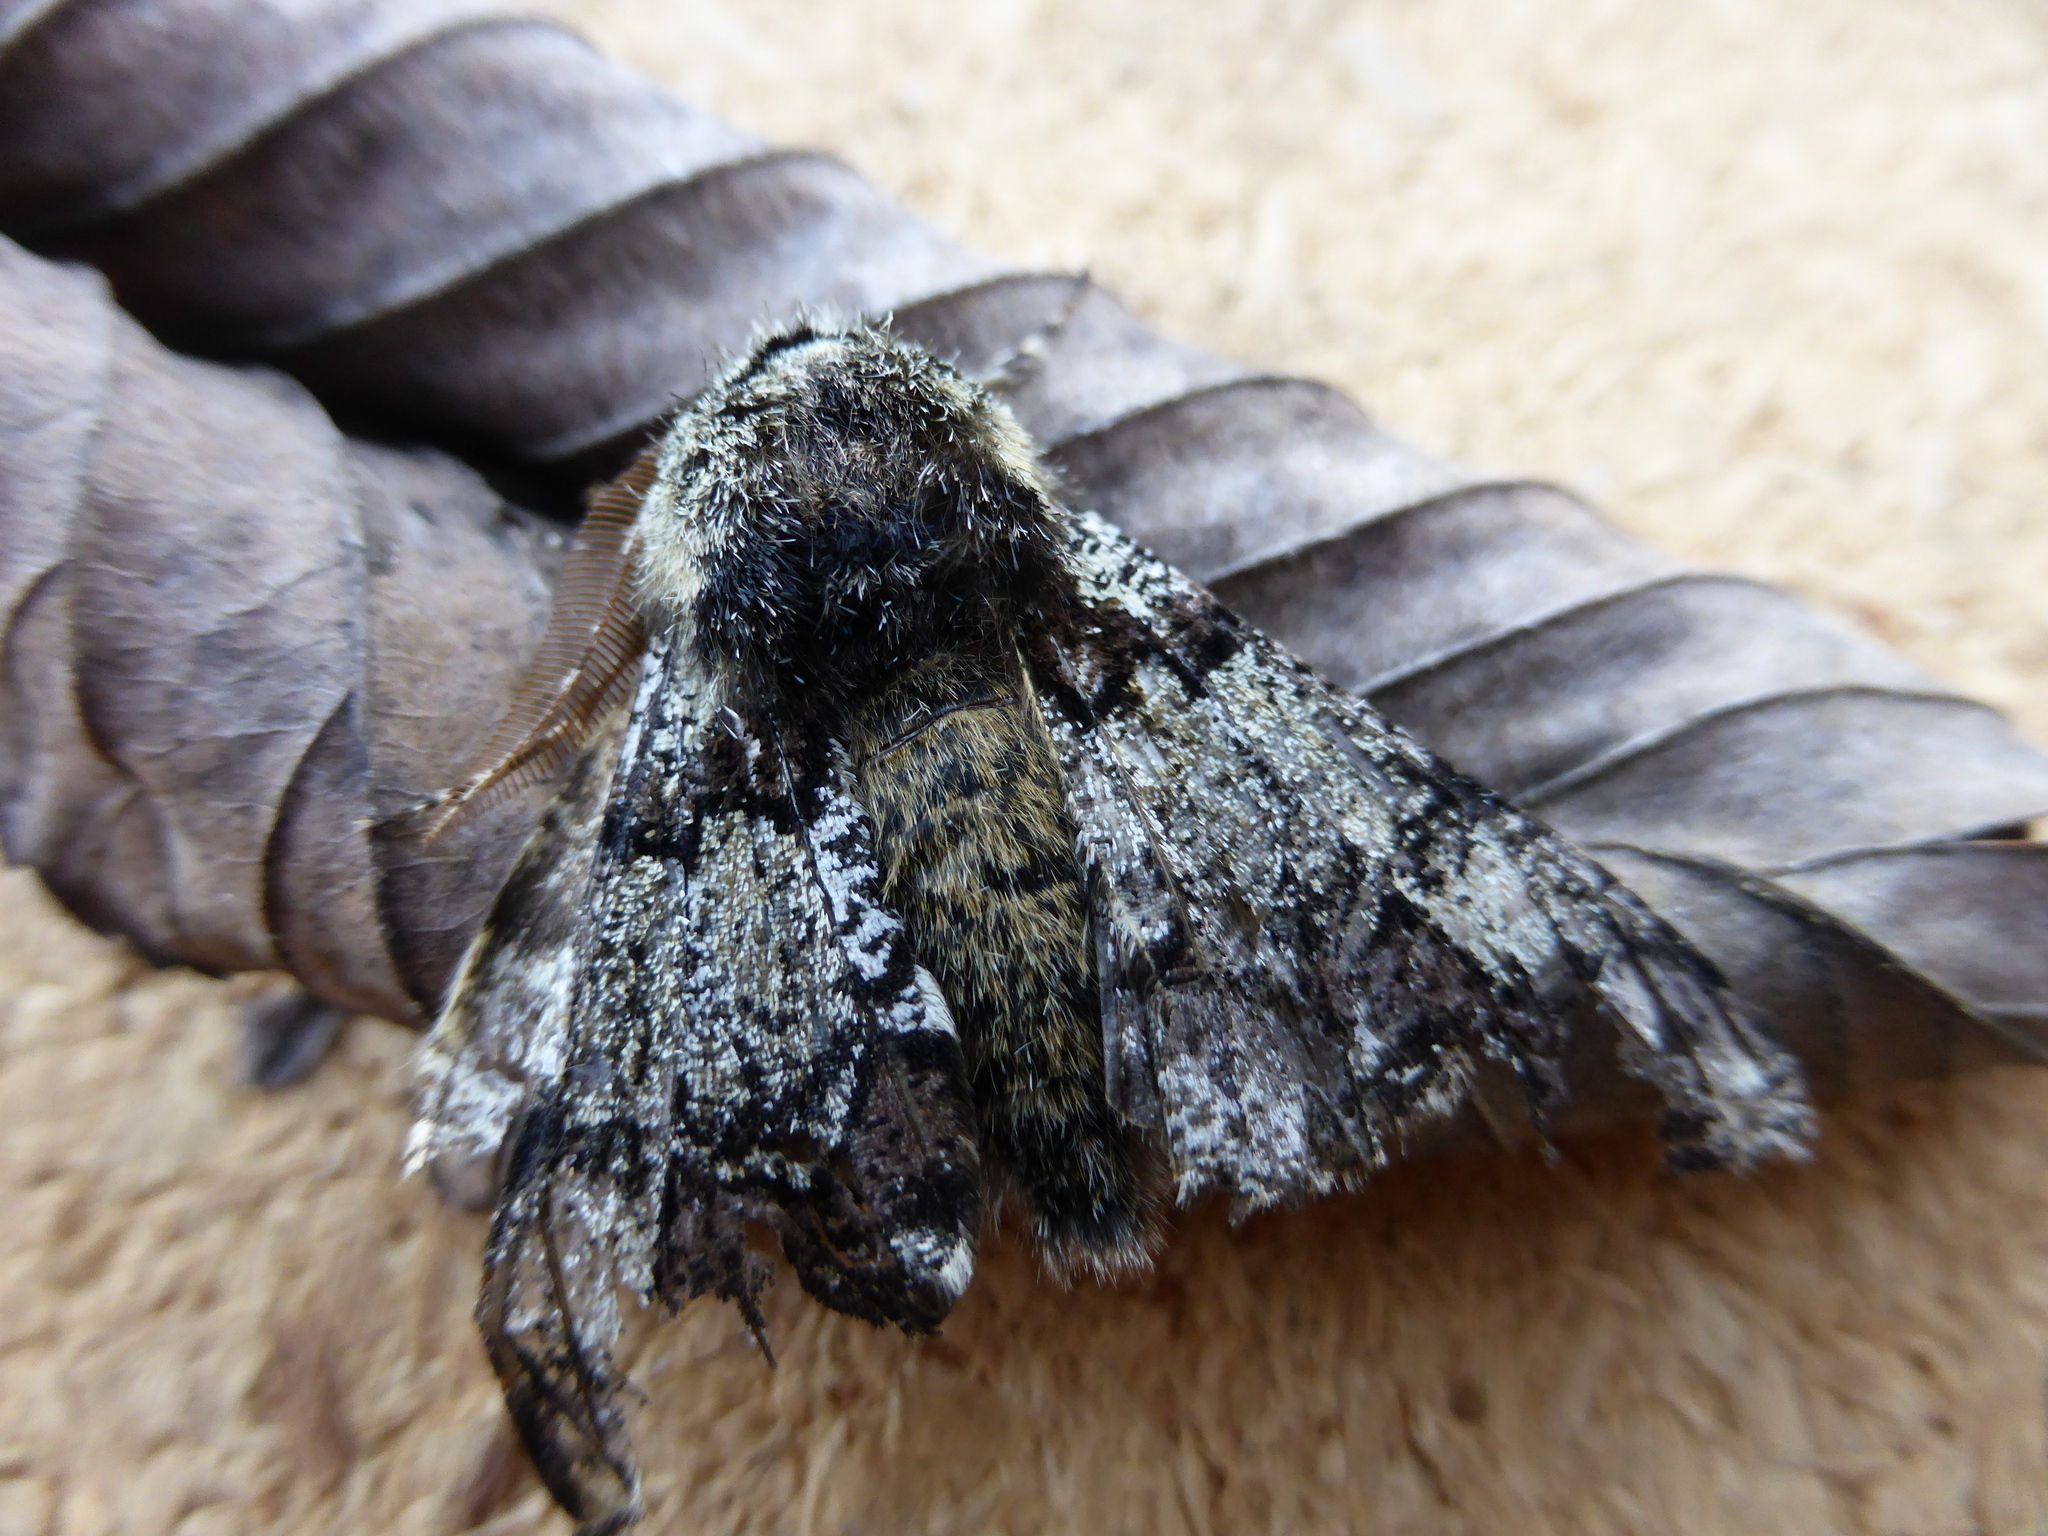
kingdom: Animalia
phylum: Arthropoda
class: Insecta
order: Lepidoptera
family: Geometridae
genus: Biston
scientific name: Biston strataria
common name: Oak beauty
